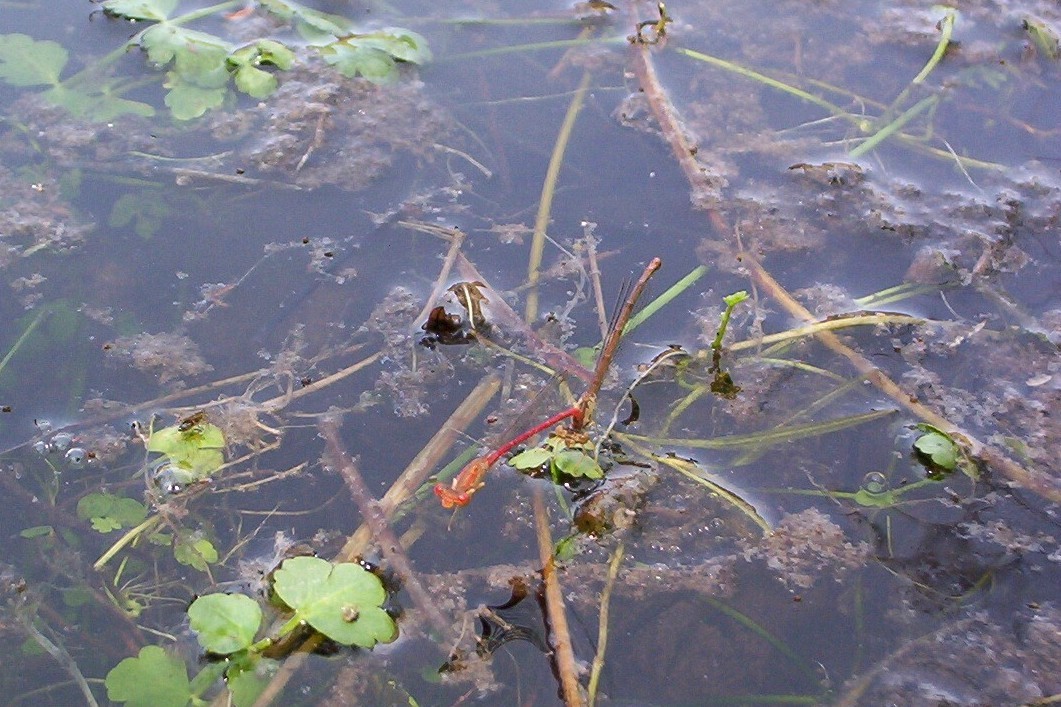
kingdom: Animalia
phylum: Arthropoda
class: Insecta
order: Odonata
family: Coenagrionidae
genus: Telebasis
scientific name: Telebasis salva
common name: Desert firetail
